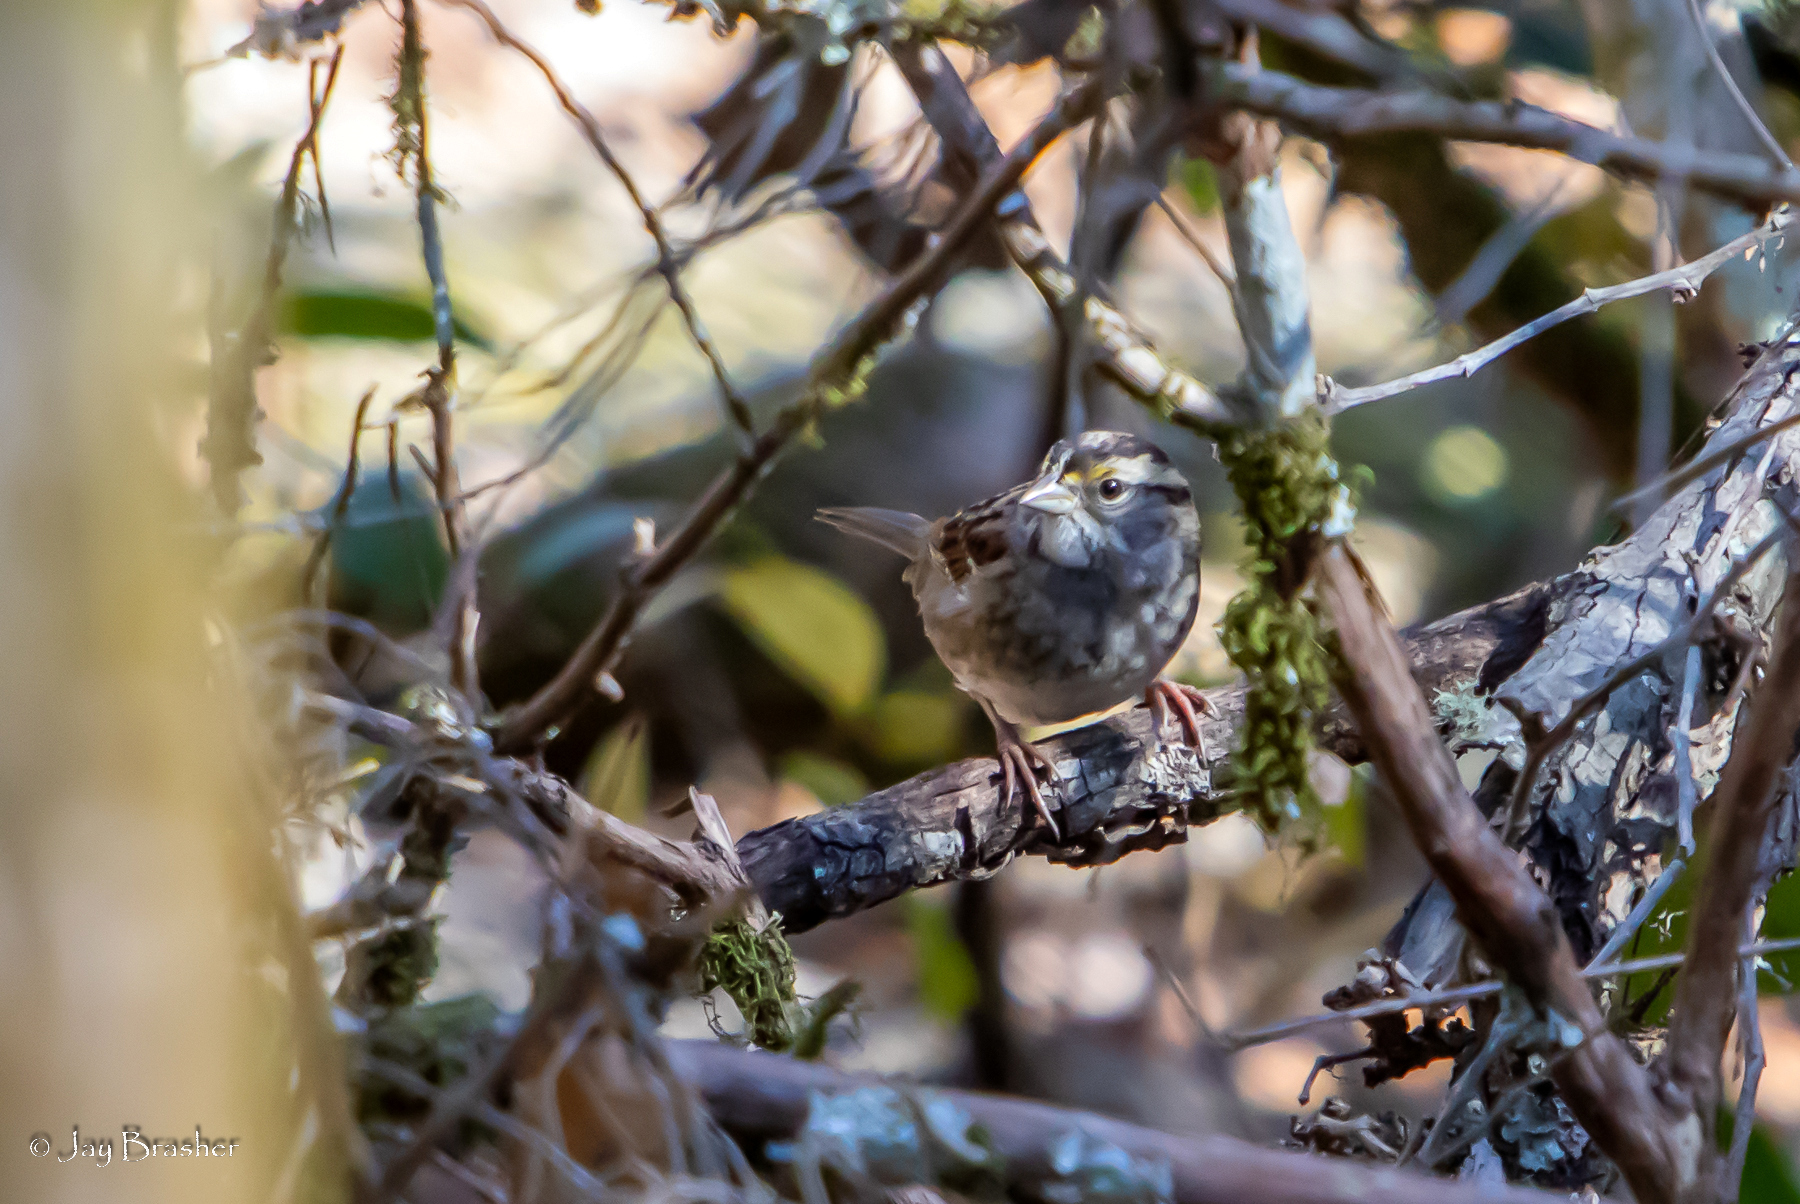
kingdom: Animalia
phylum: Chordata
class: Aves
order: Passeriformes
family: Passerellidae
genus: Zonotrichia
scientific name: Zonotrichia albicollis
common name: White-throated sparrow
